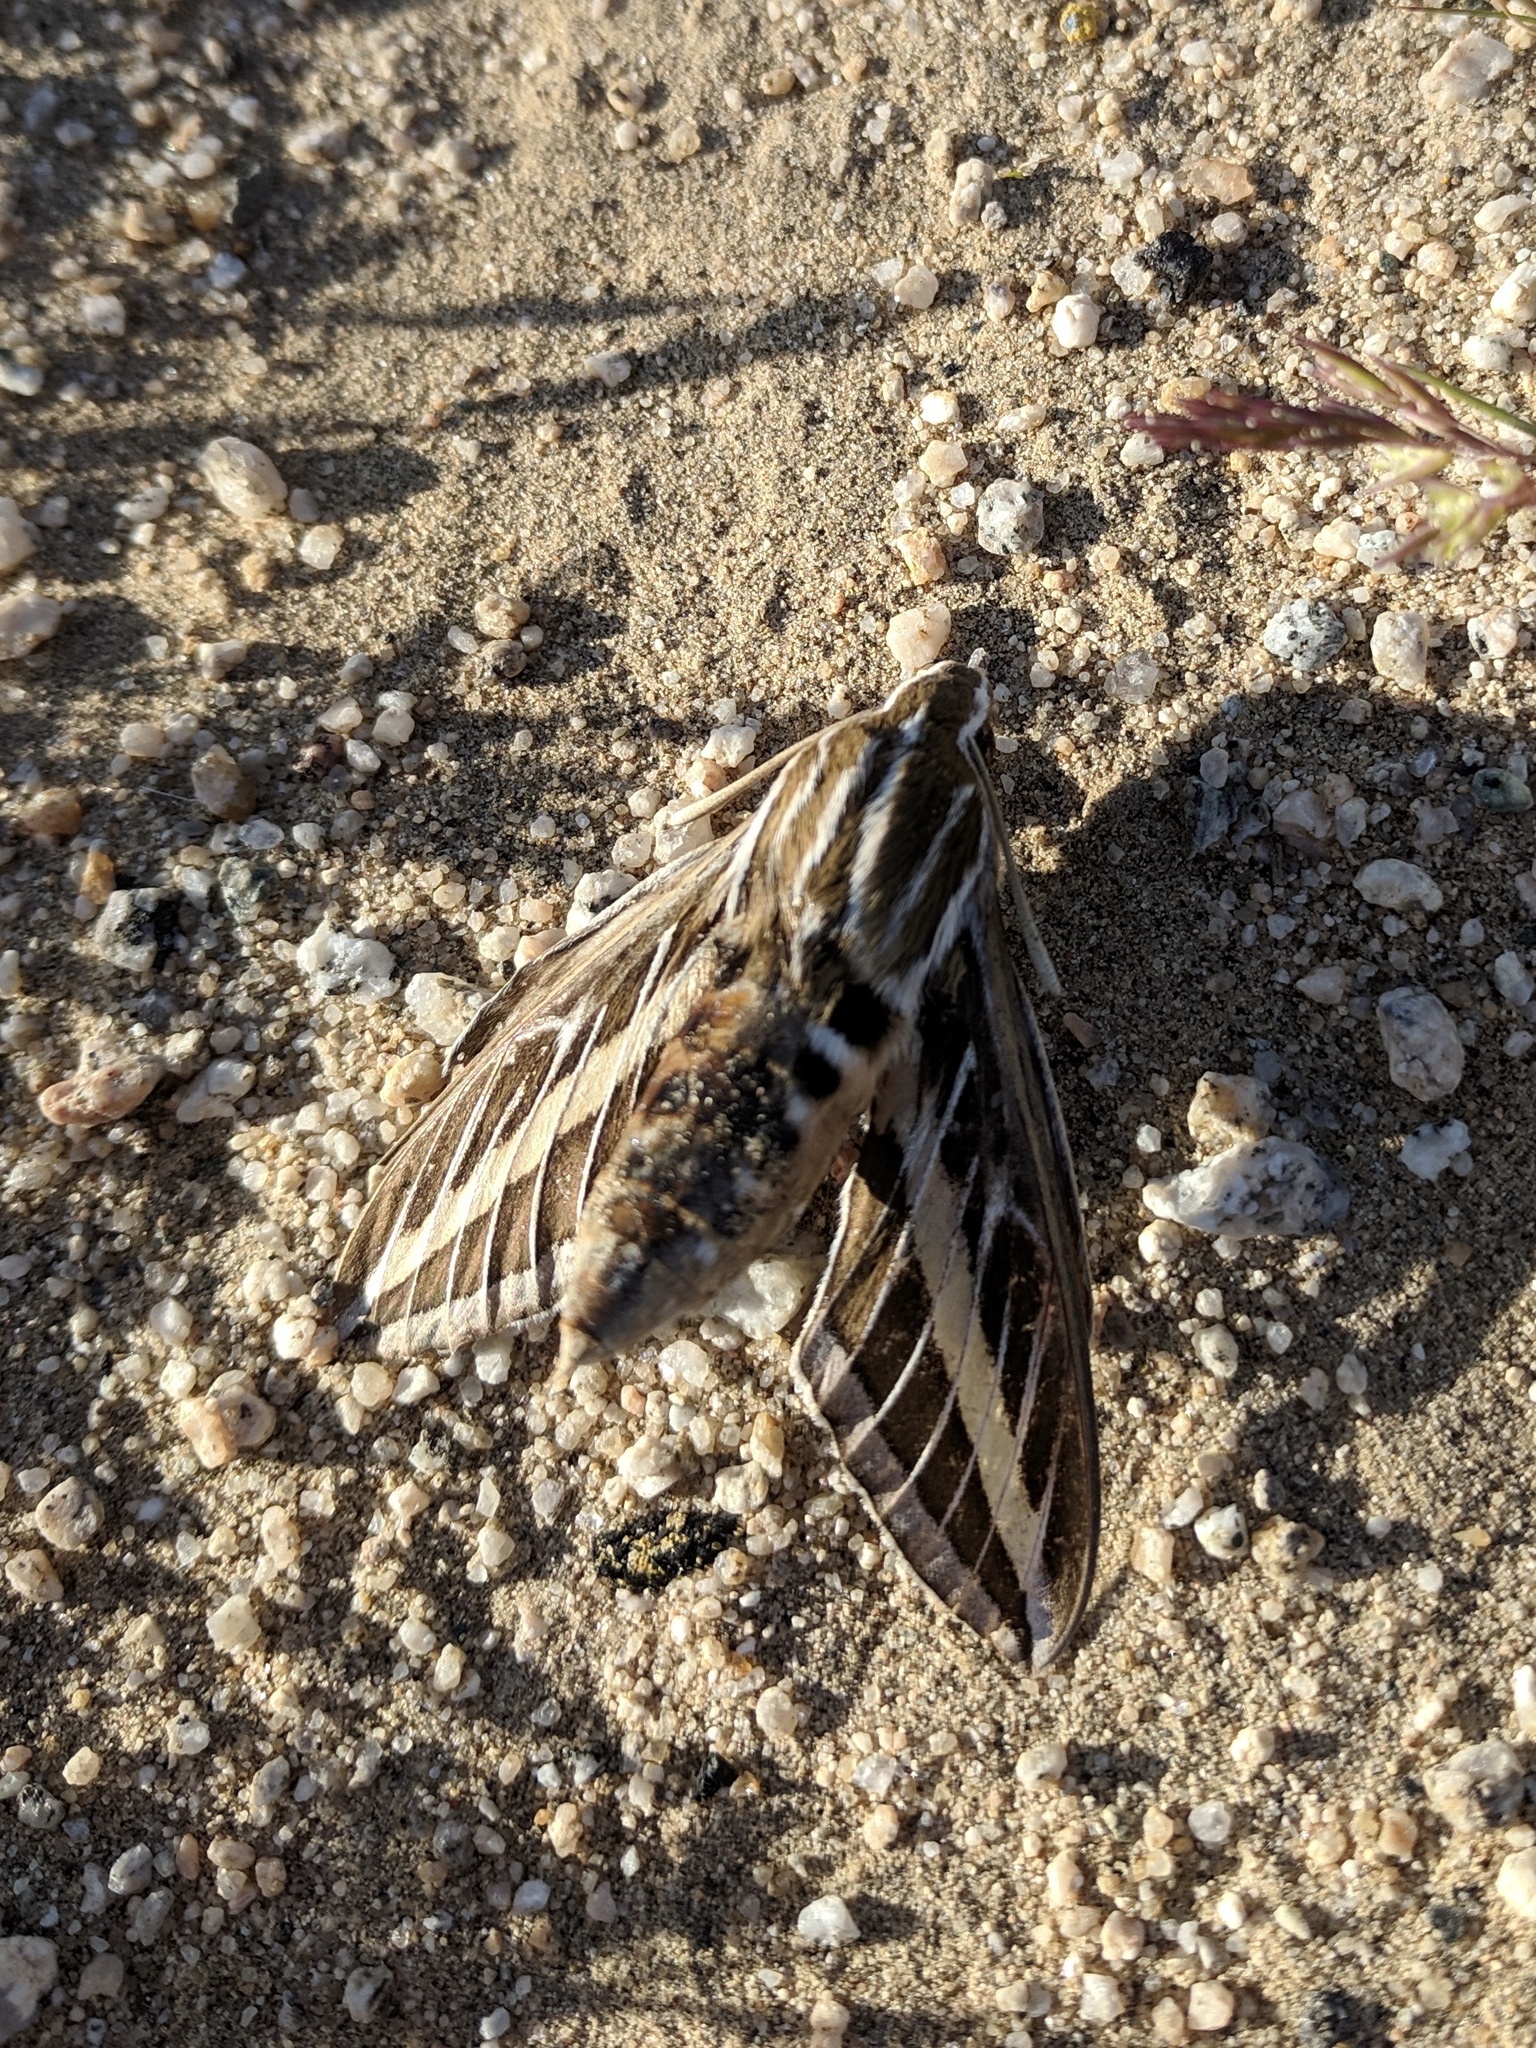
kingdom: Animalia
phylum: Arthropoda
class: Insecta
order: Lepidoptera
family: Sphingidae
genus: Hyles
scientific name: Hyles lineata
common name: White-lined sphinx
